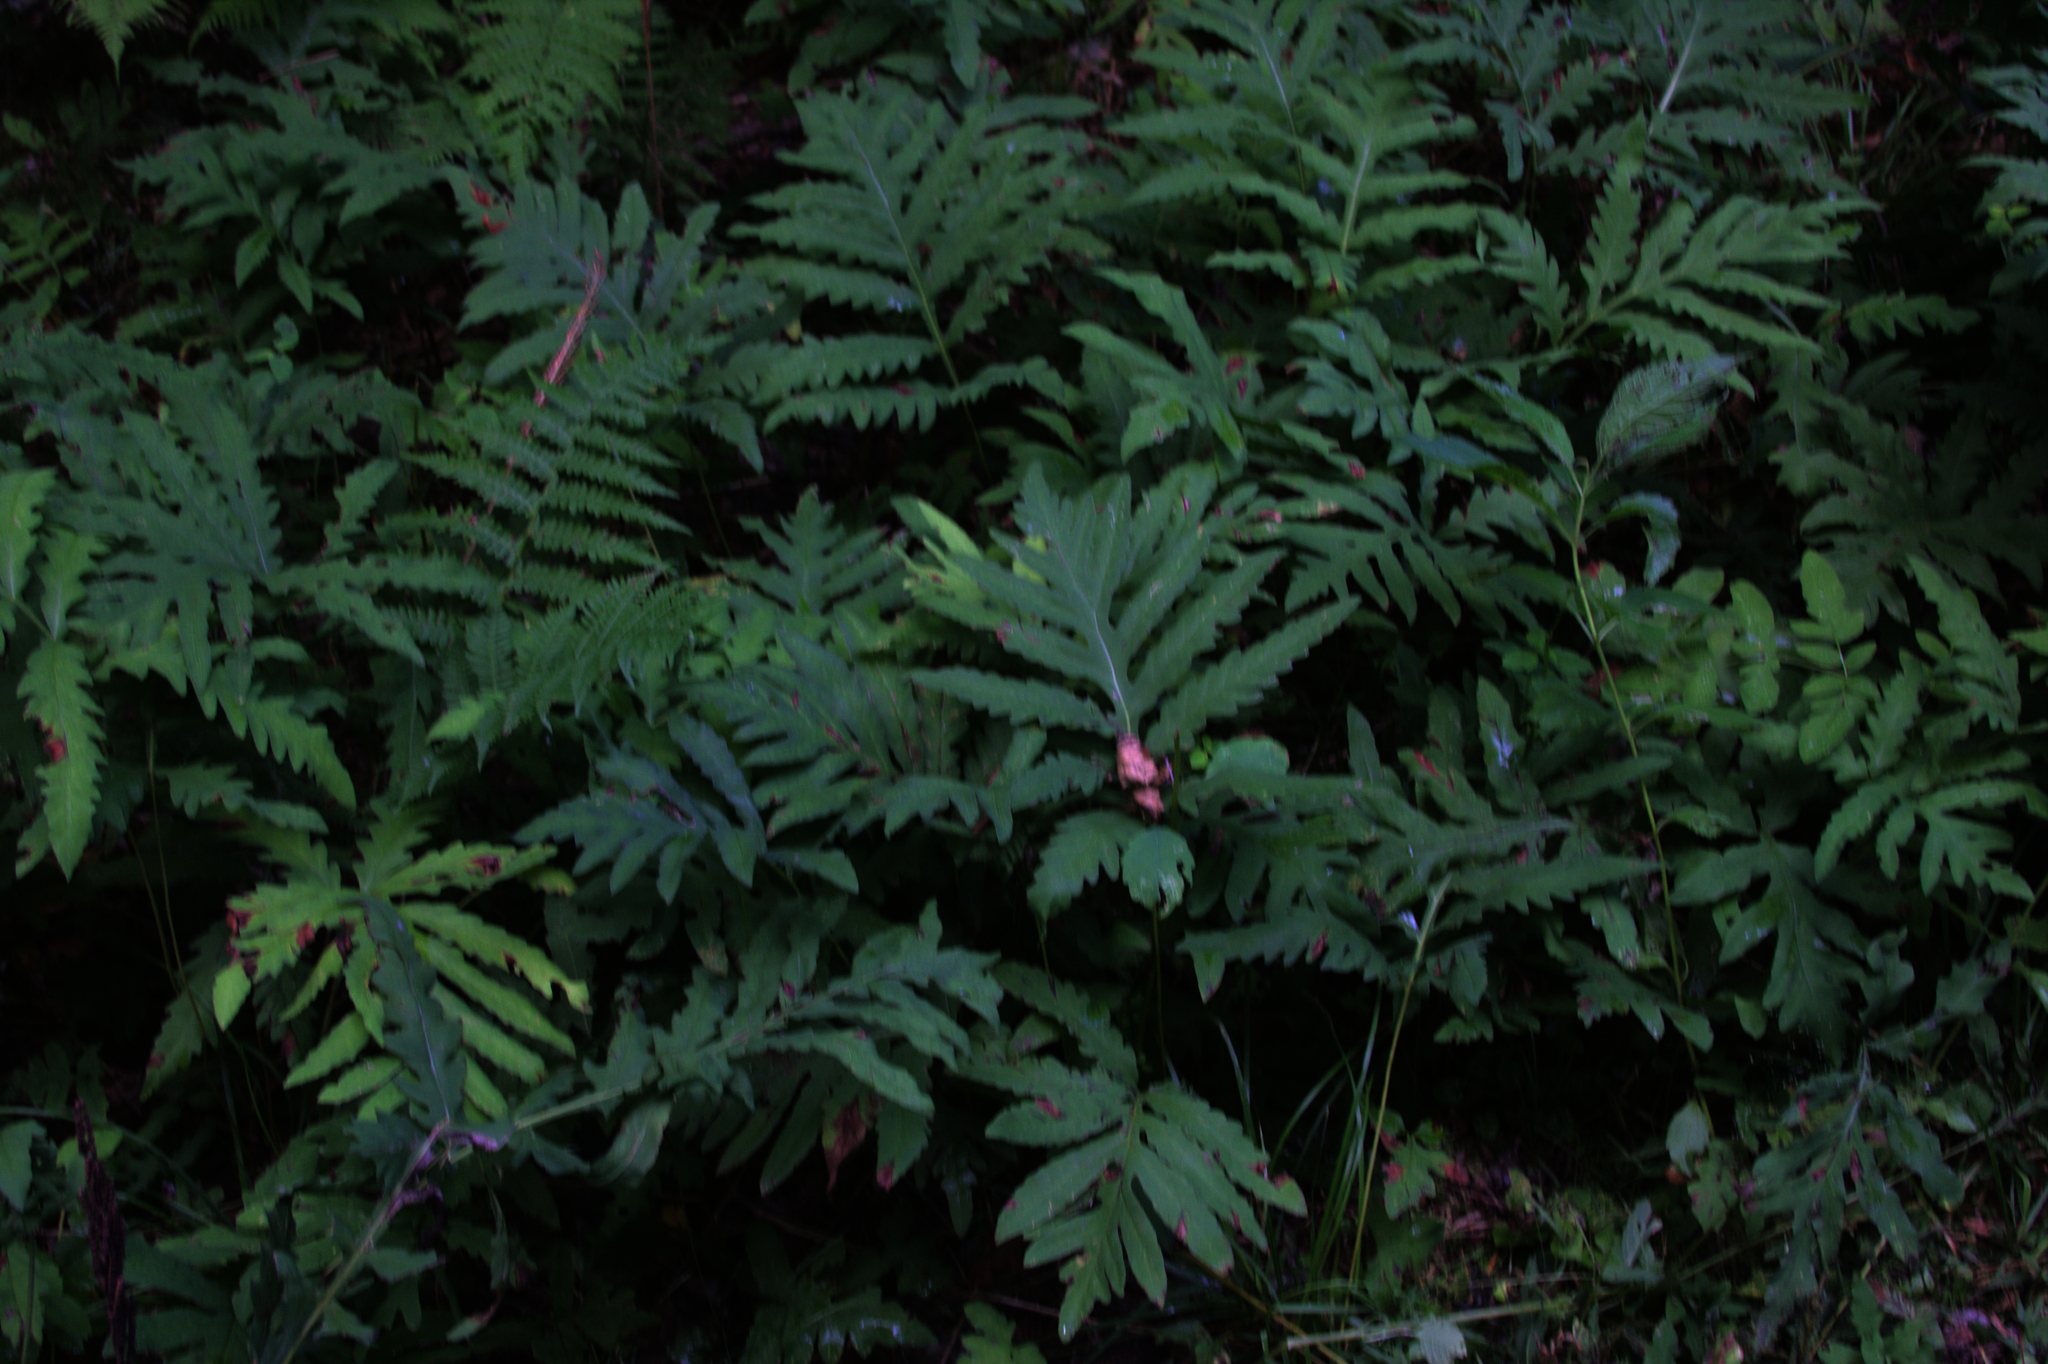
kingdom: Plantae
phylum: Tracheophyta
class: Polypodiopsida
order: Polypodiales
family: Onocleaceae
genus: Onoclea
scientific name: Onoclea sensibilis
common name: Sensitive fern
